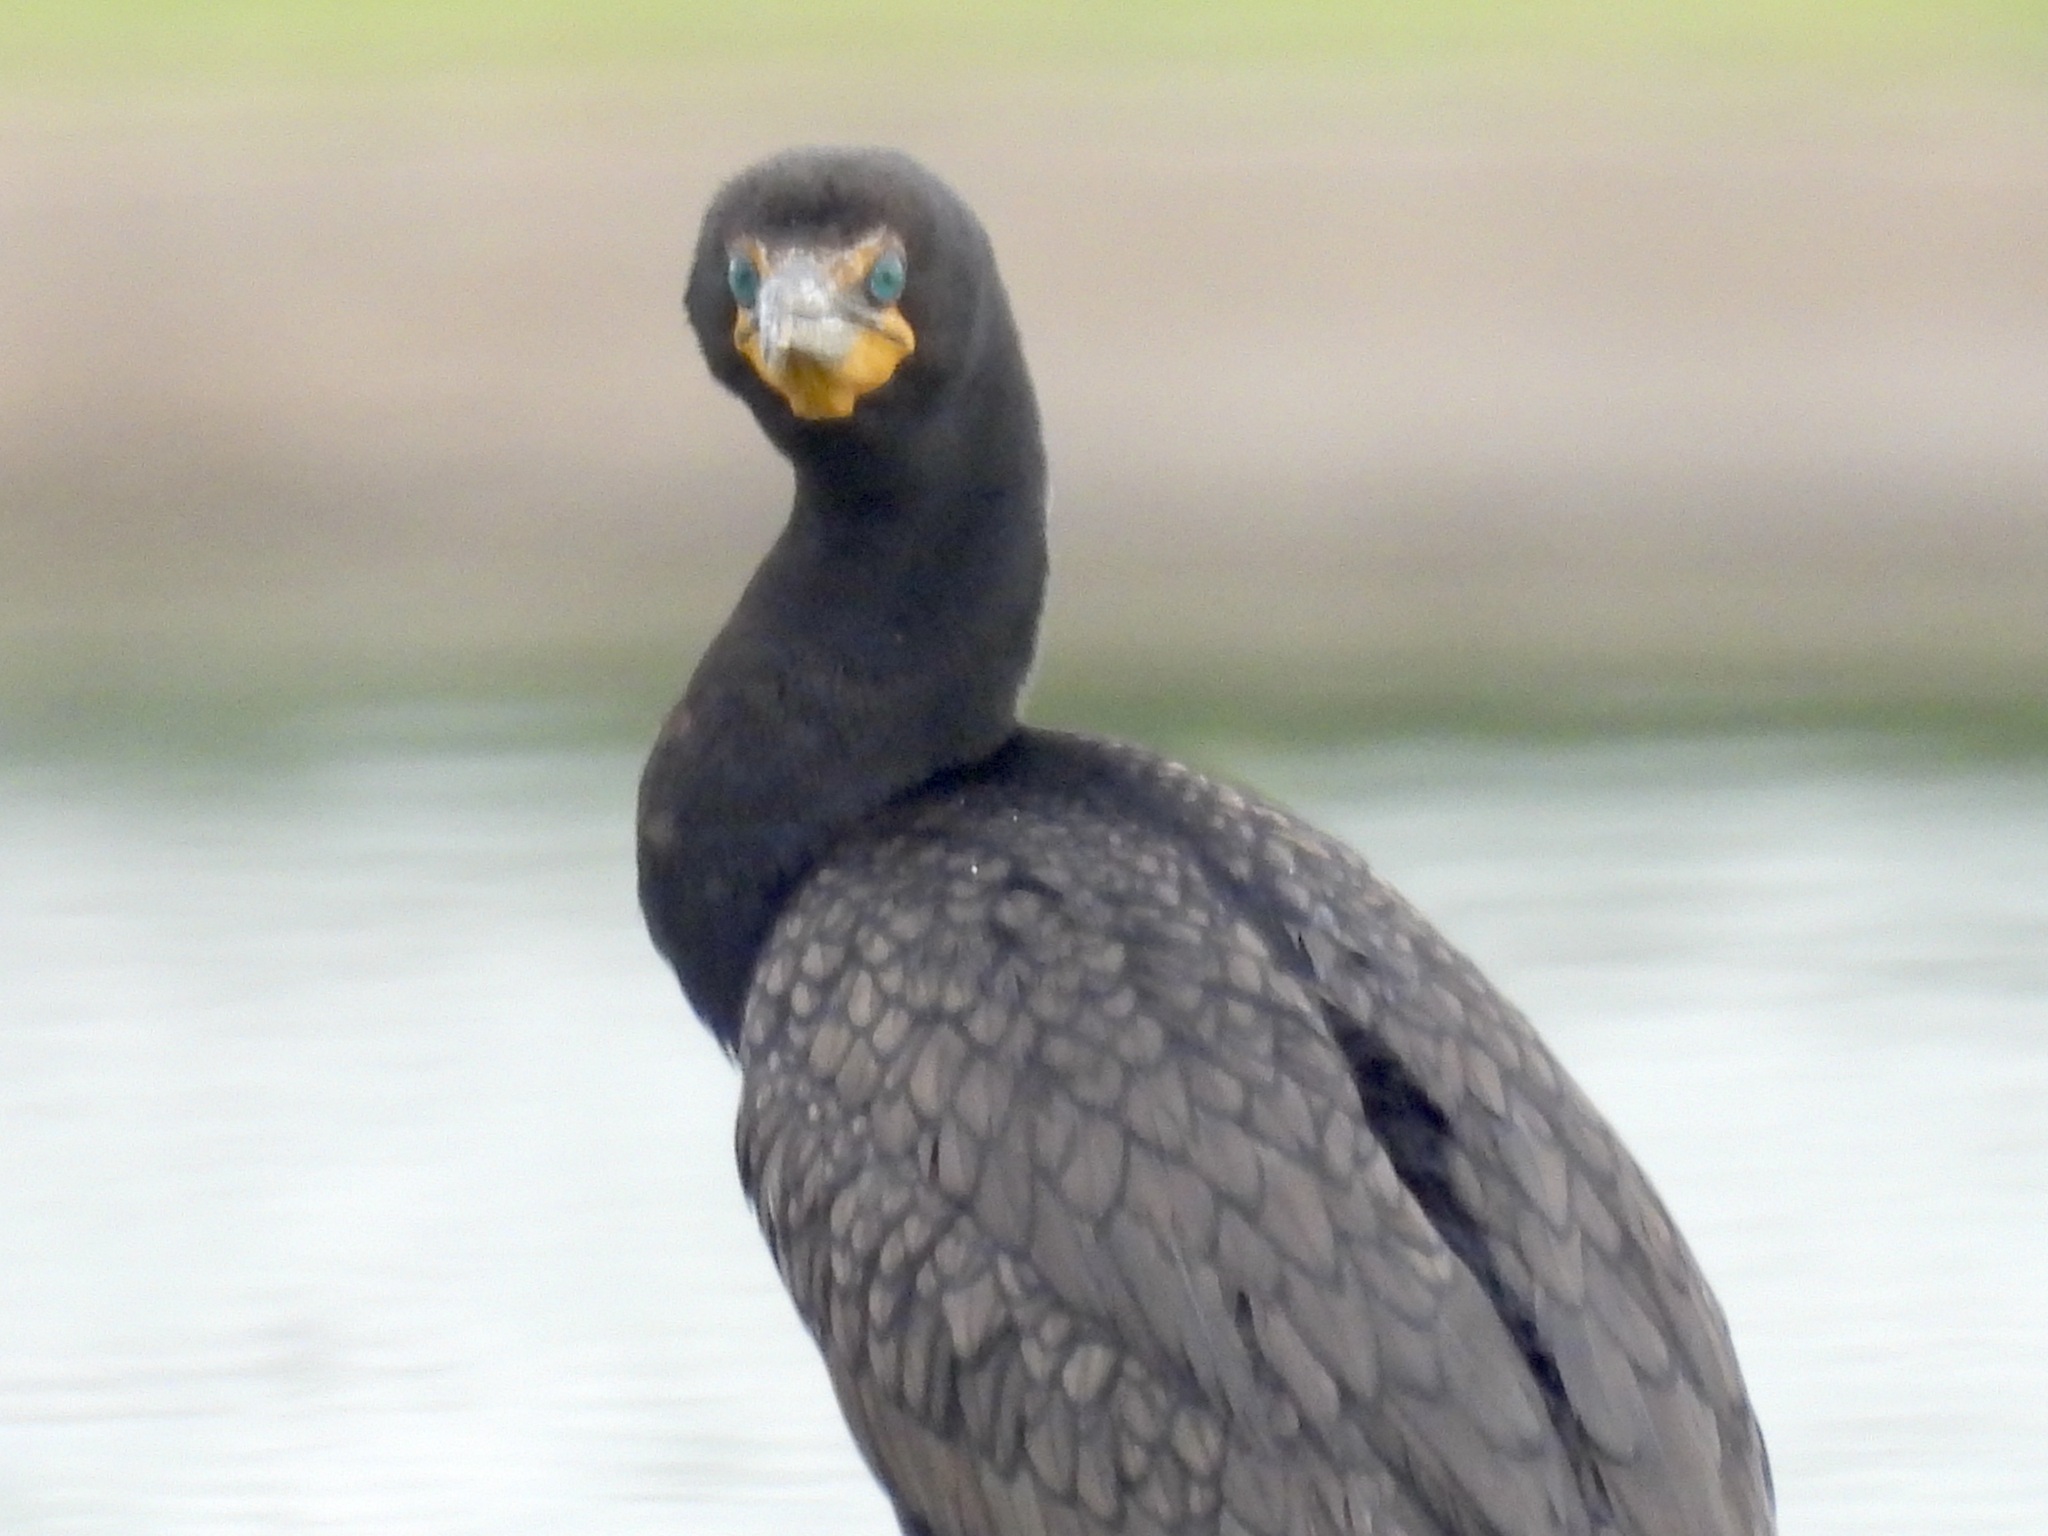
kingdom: Animalia
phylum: Chordata
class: Aves
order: Suliformes
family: Phalacrocoracidae
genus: Phalacrocorax
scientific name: Phalacrocorax auritus
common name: Double-crested cormorant
